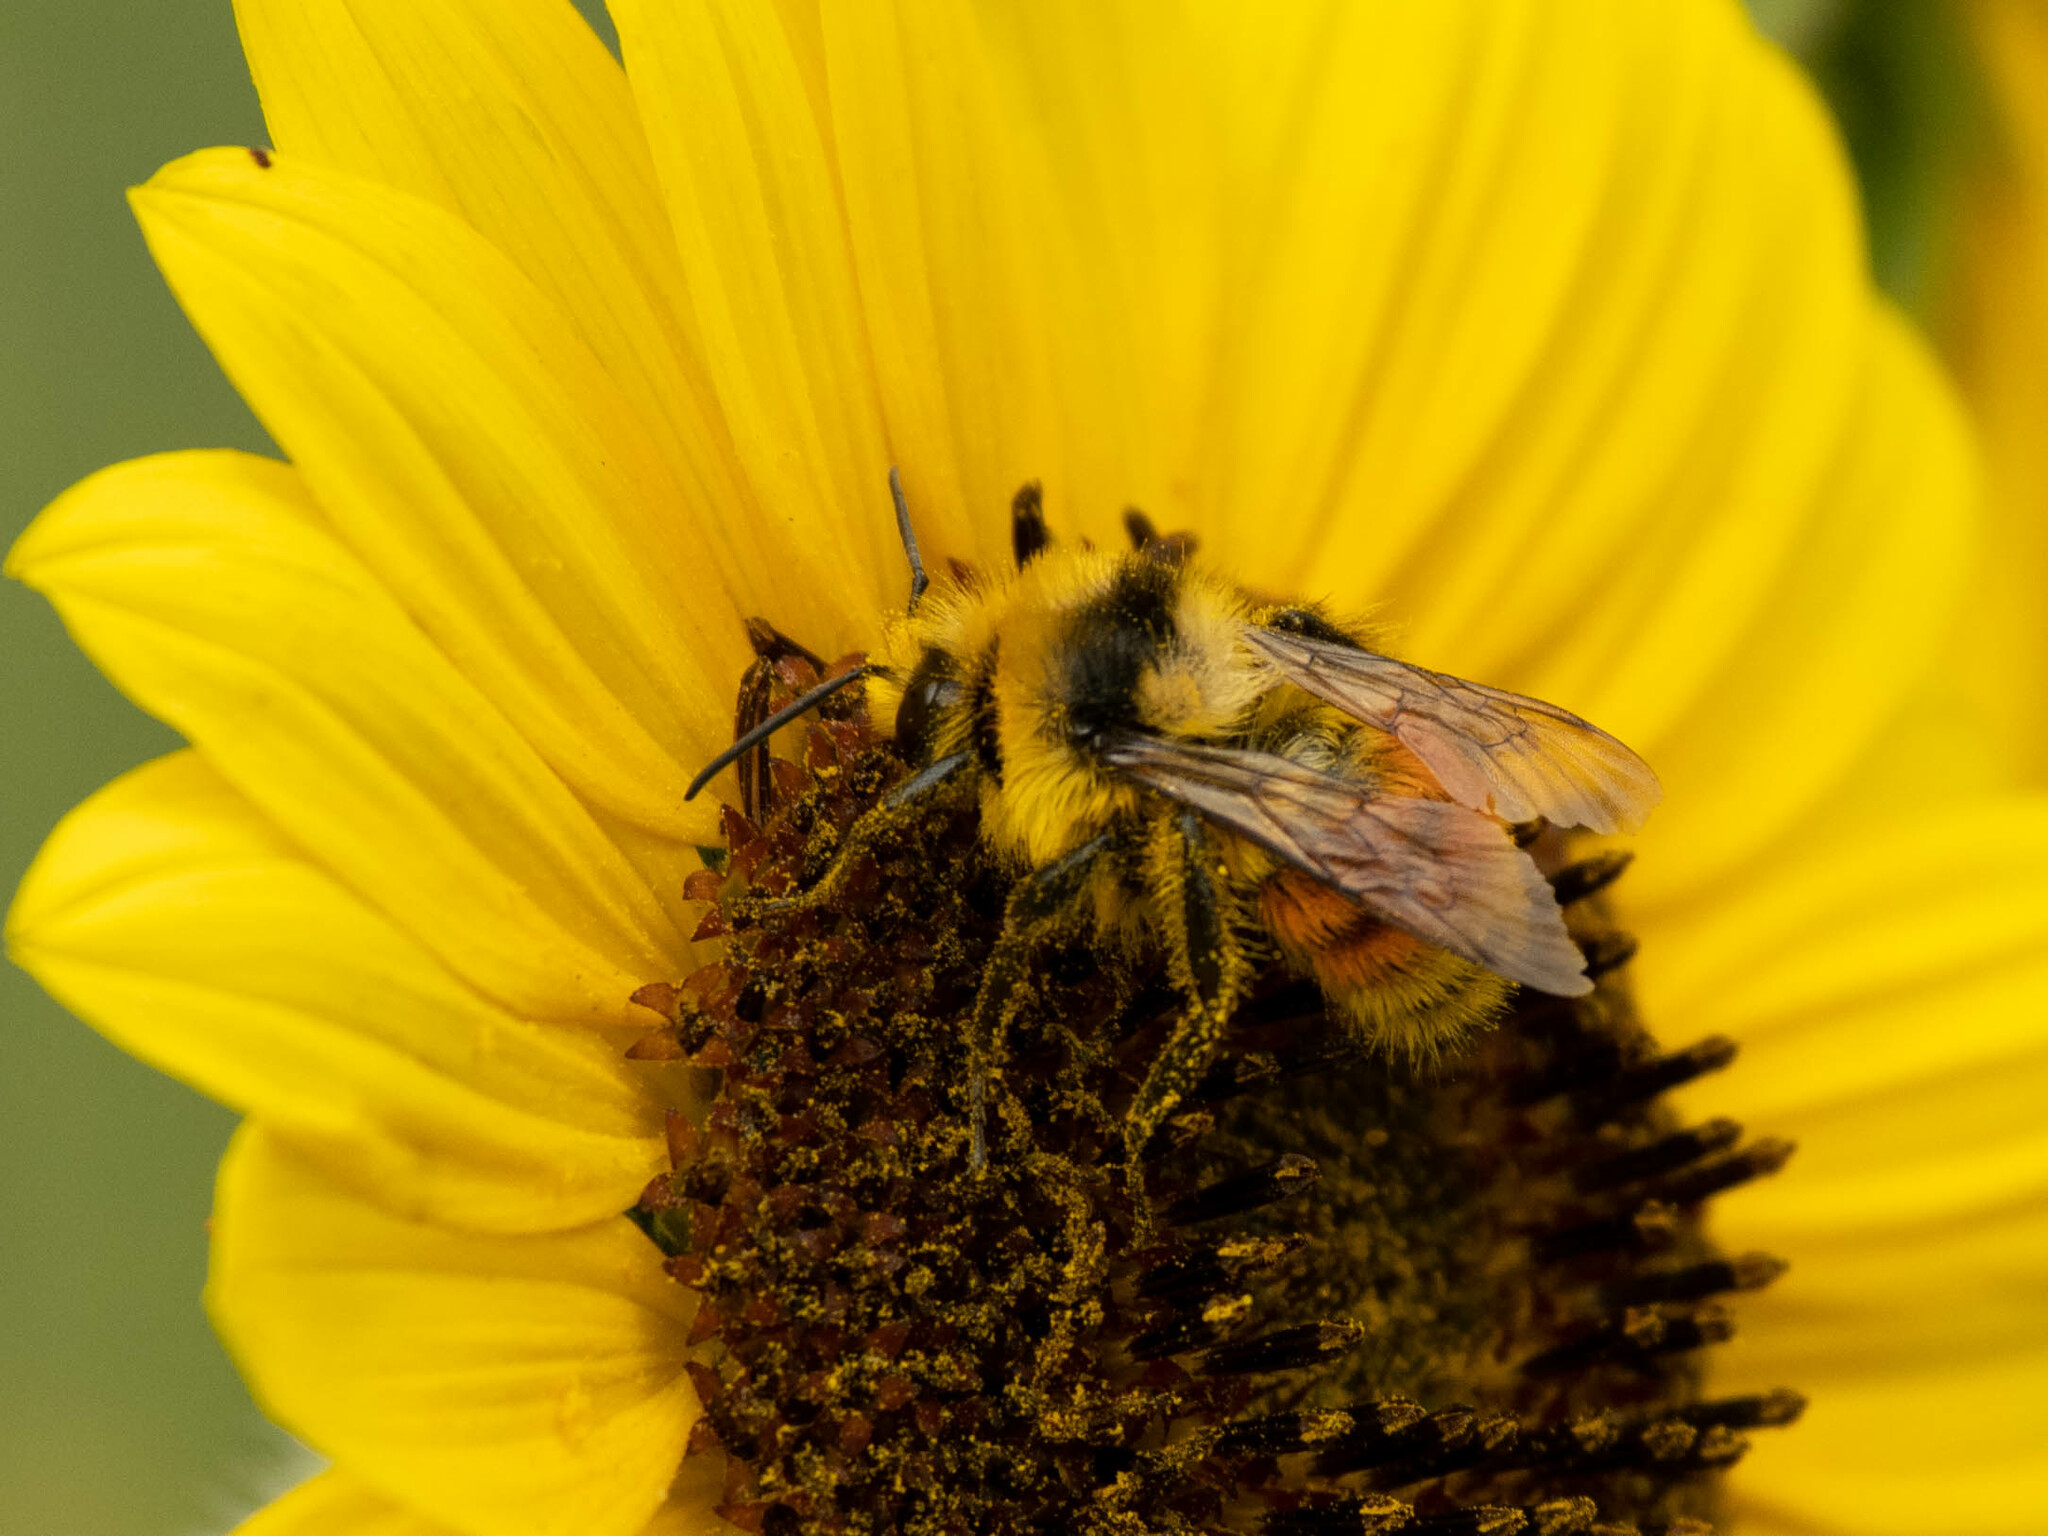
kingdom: Animalia
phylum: Arthropoda
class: Insecta
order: Hymenoptera
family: Apidae
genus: Bombus
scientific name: Bombus huntii
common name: Hunt bumble bee
